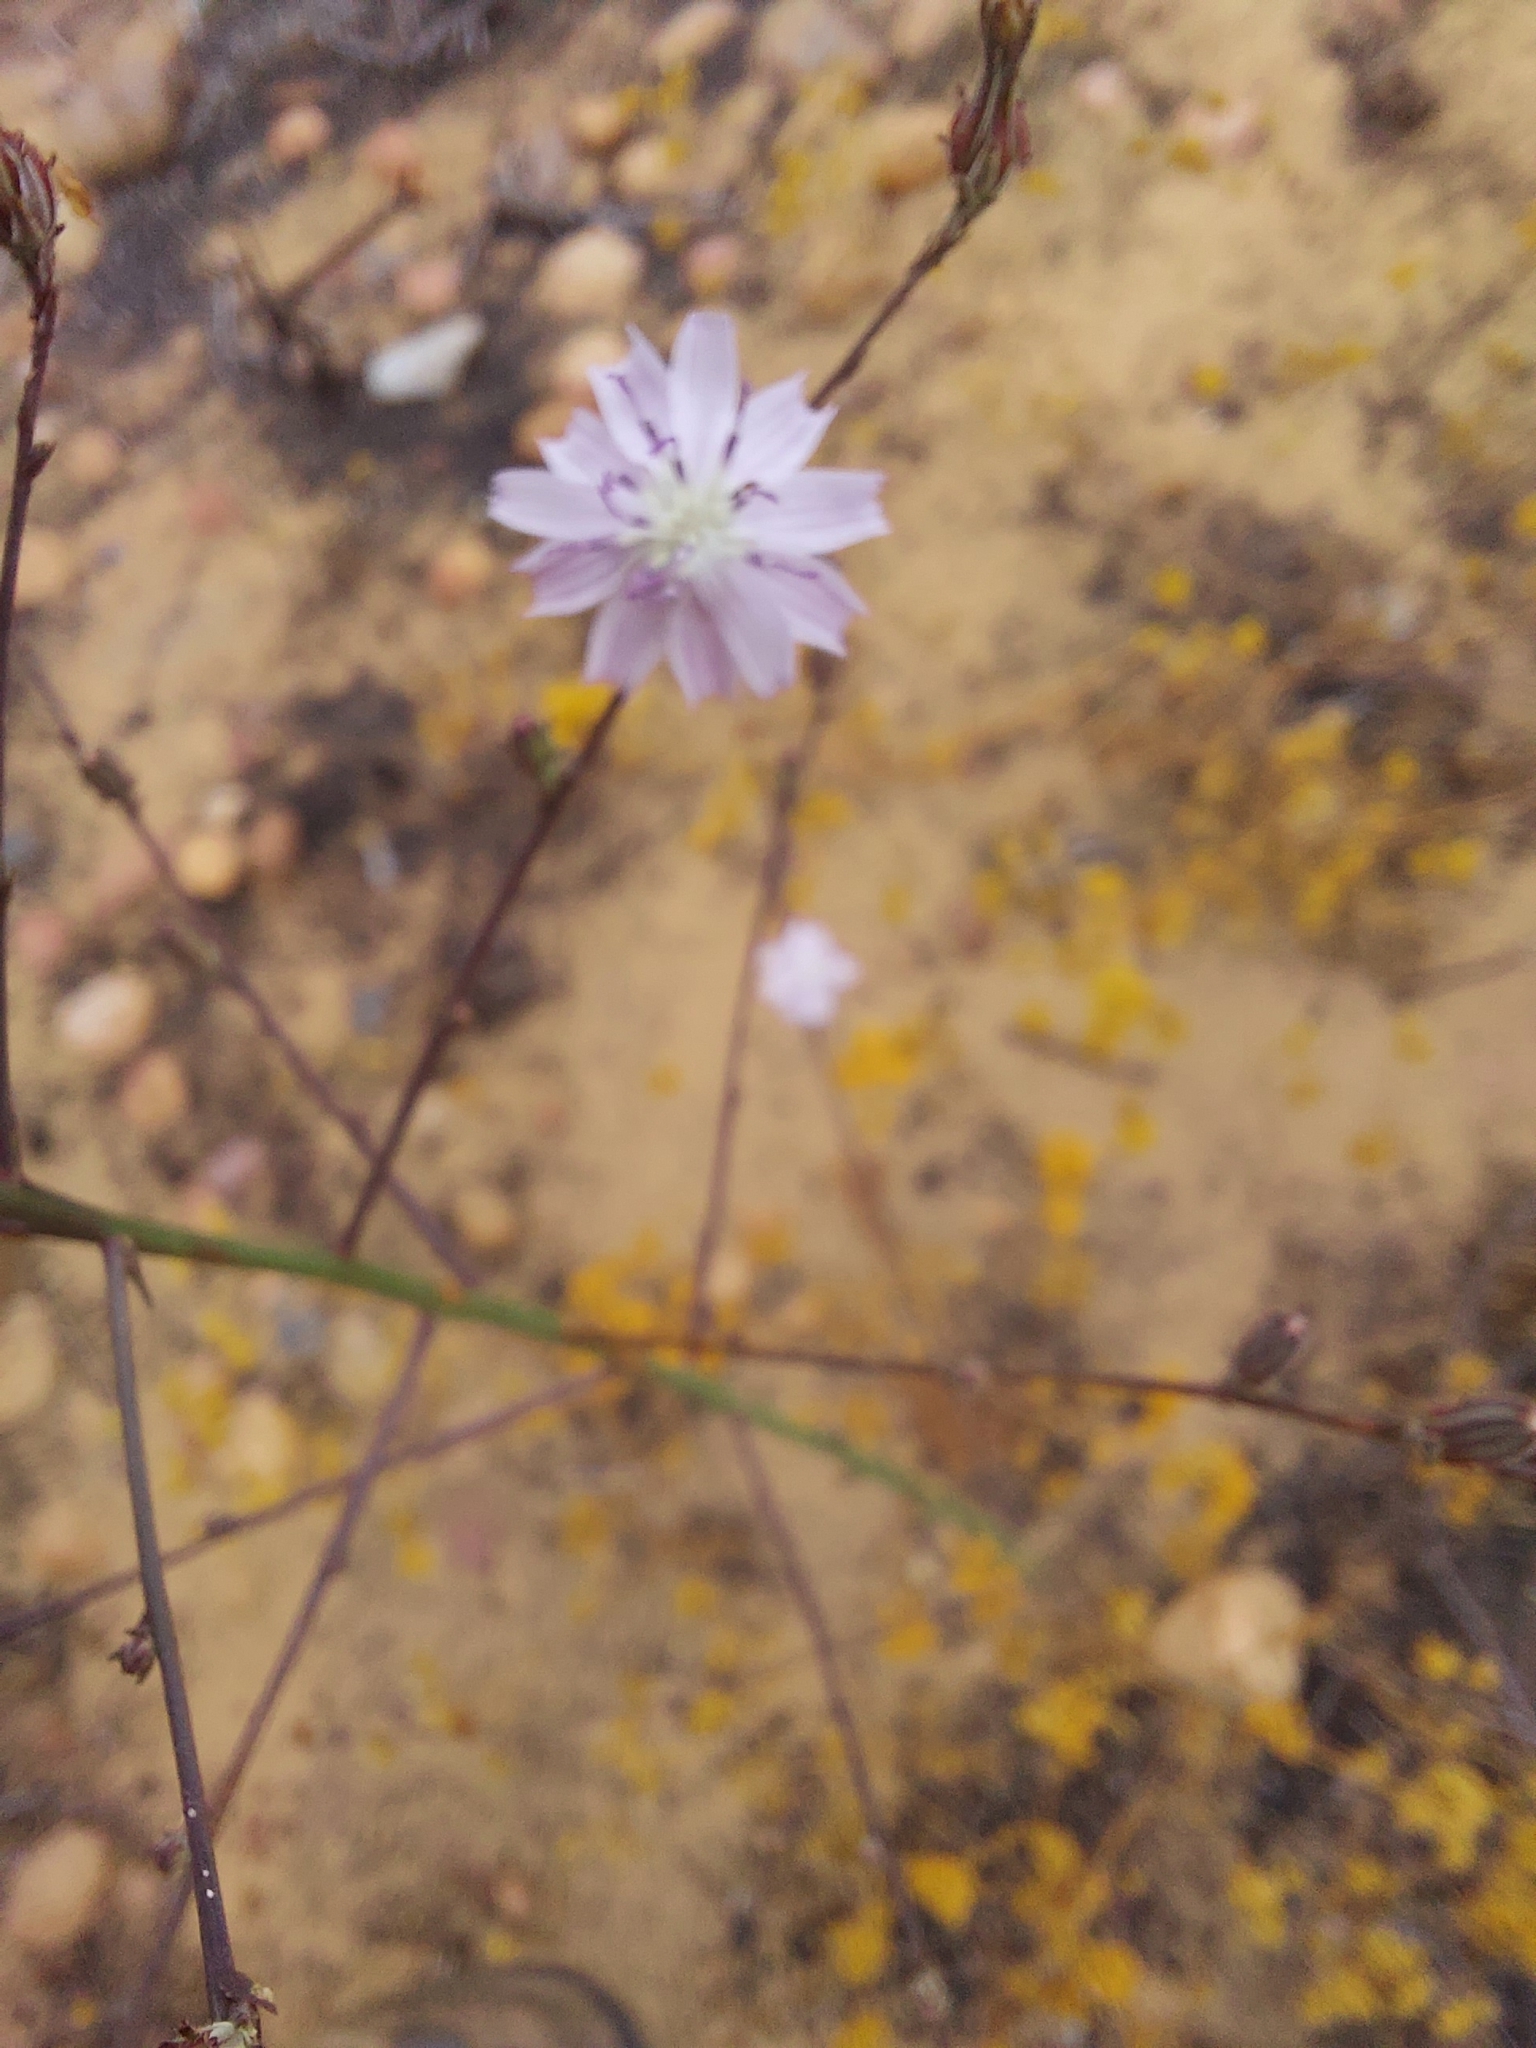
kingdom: Plantae
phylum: Tracheophyta
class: Magnoliopsida
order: Asterales
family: Asteraceae
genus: Stephanomeria
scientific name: Stephanomeria diegensis
